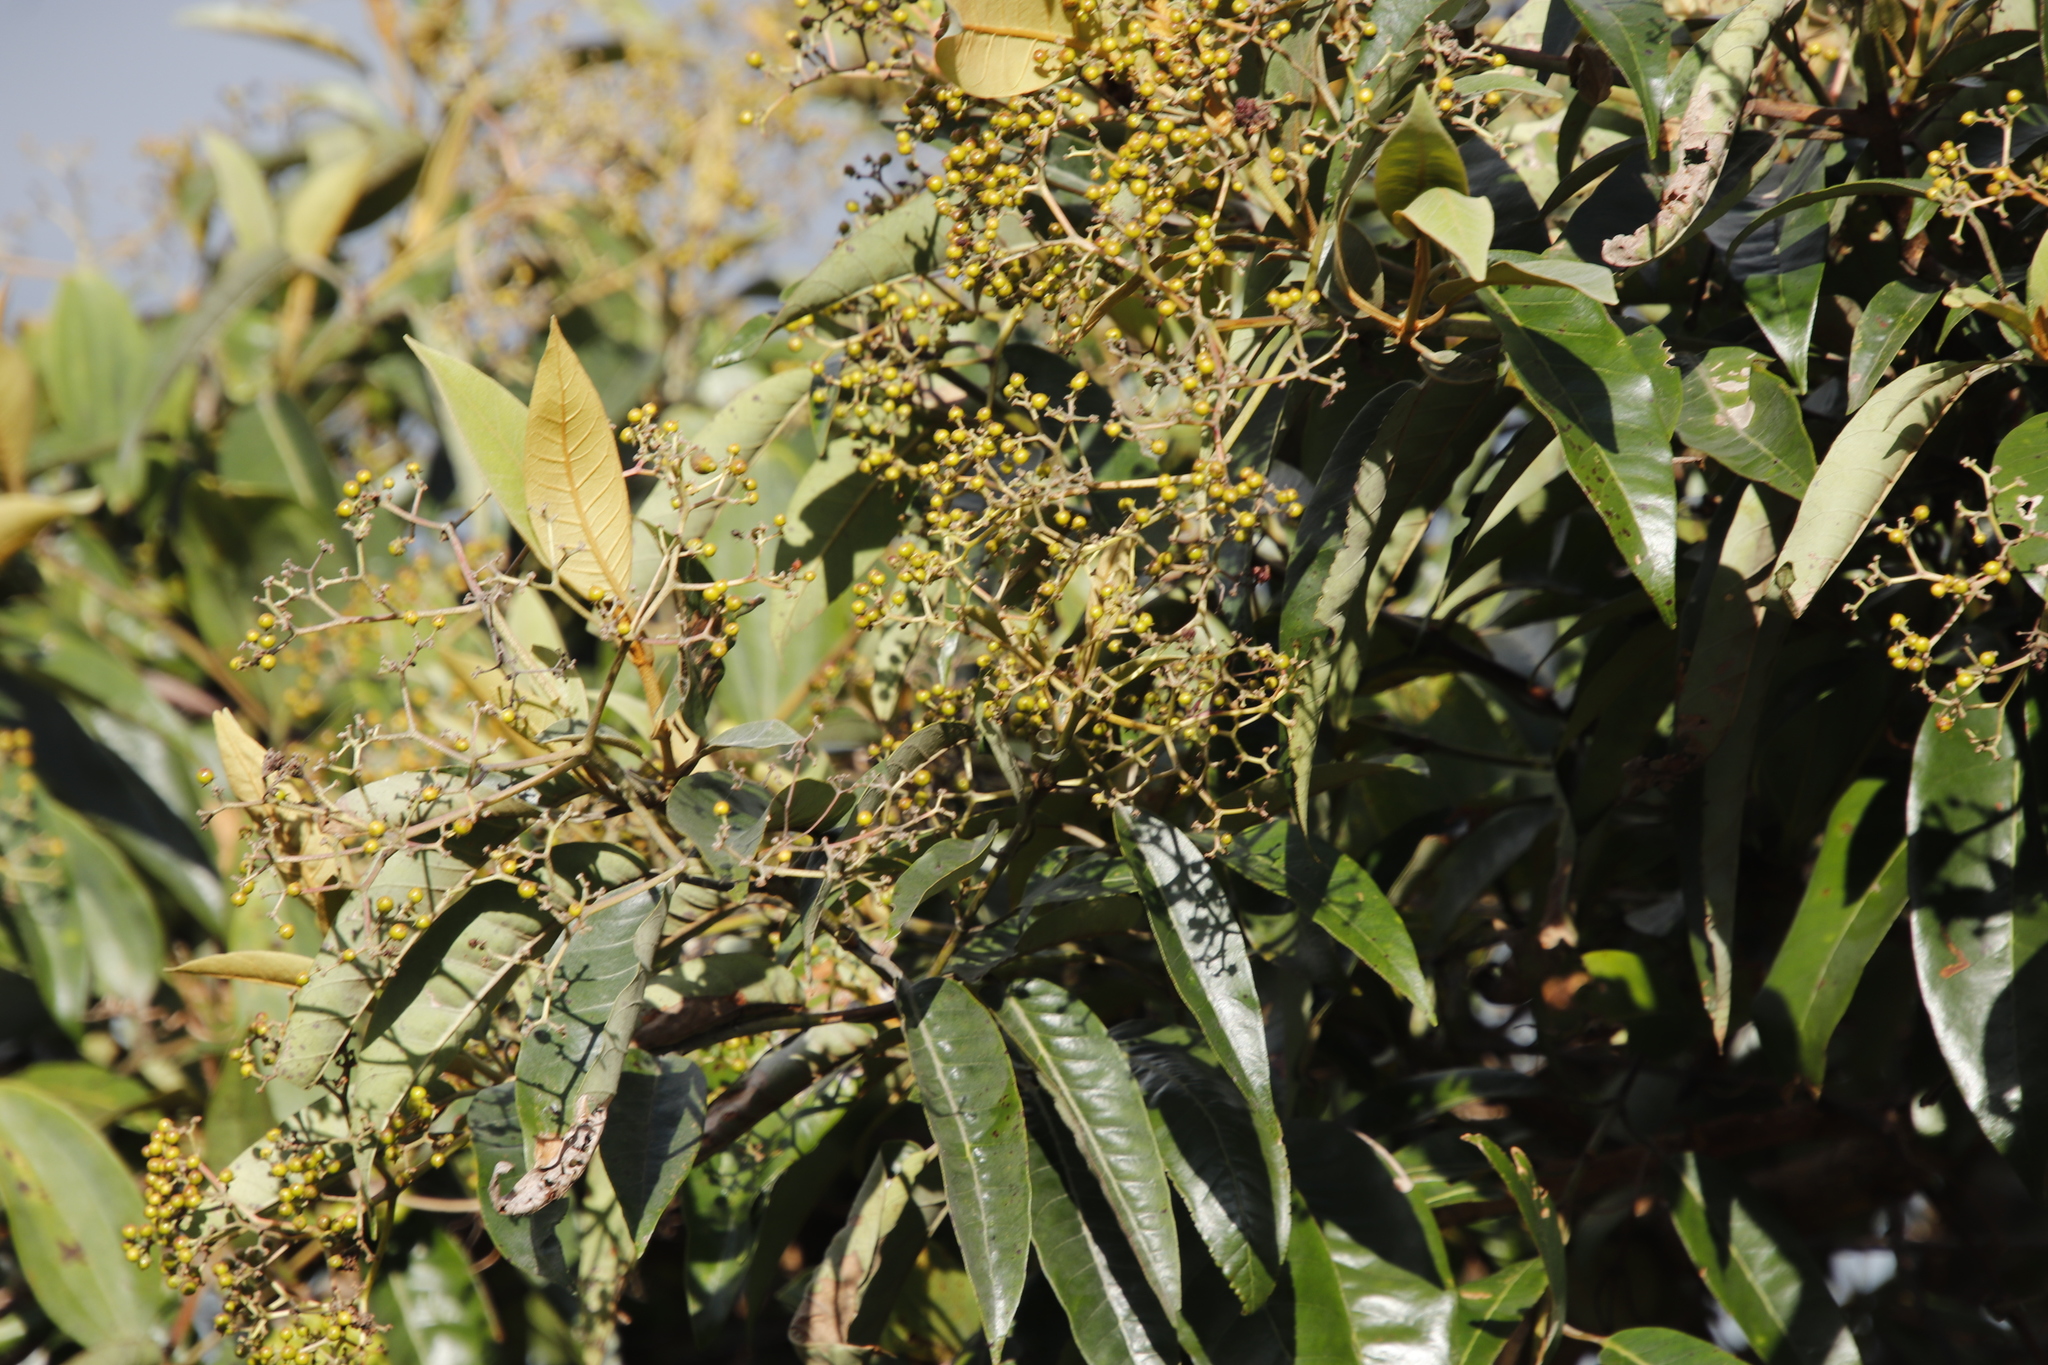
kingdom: Plantae
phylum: Tracheophyta
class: Liliopsida
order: Liliales
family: Smilacaceae
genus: Smilax
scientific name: Smilax anceps
